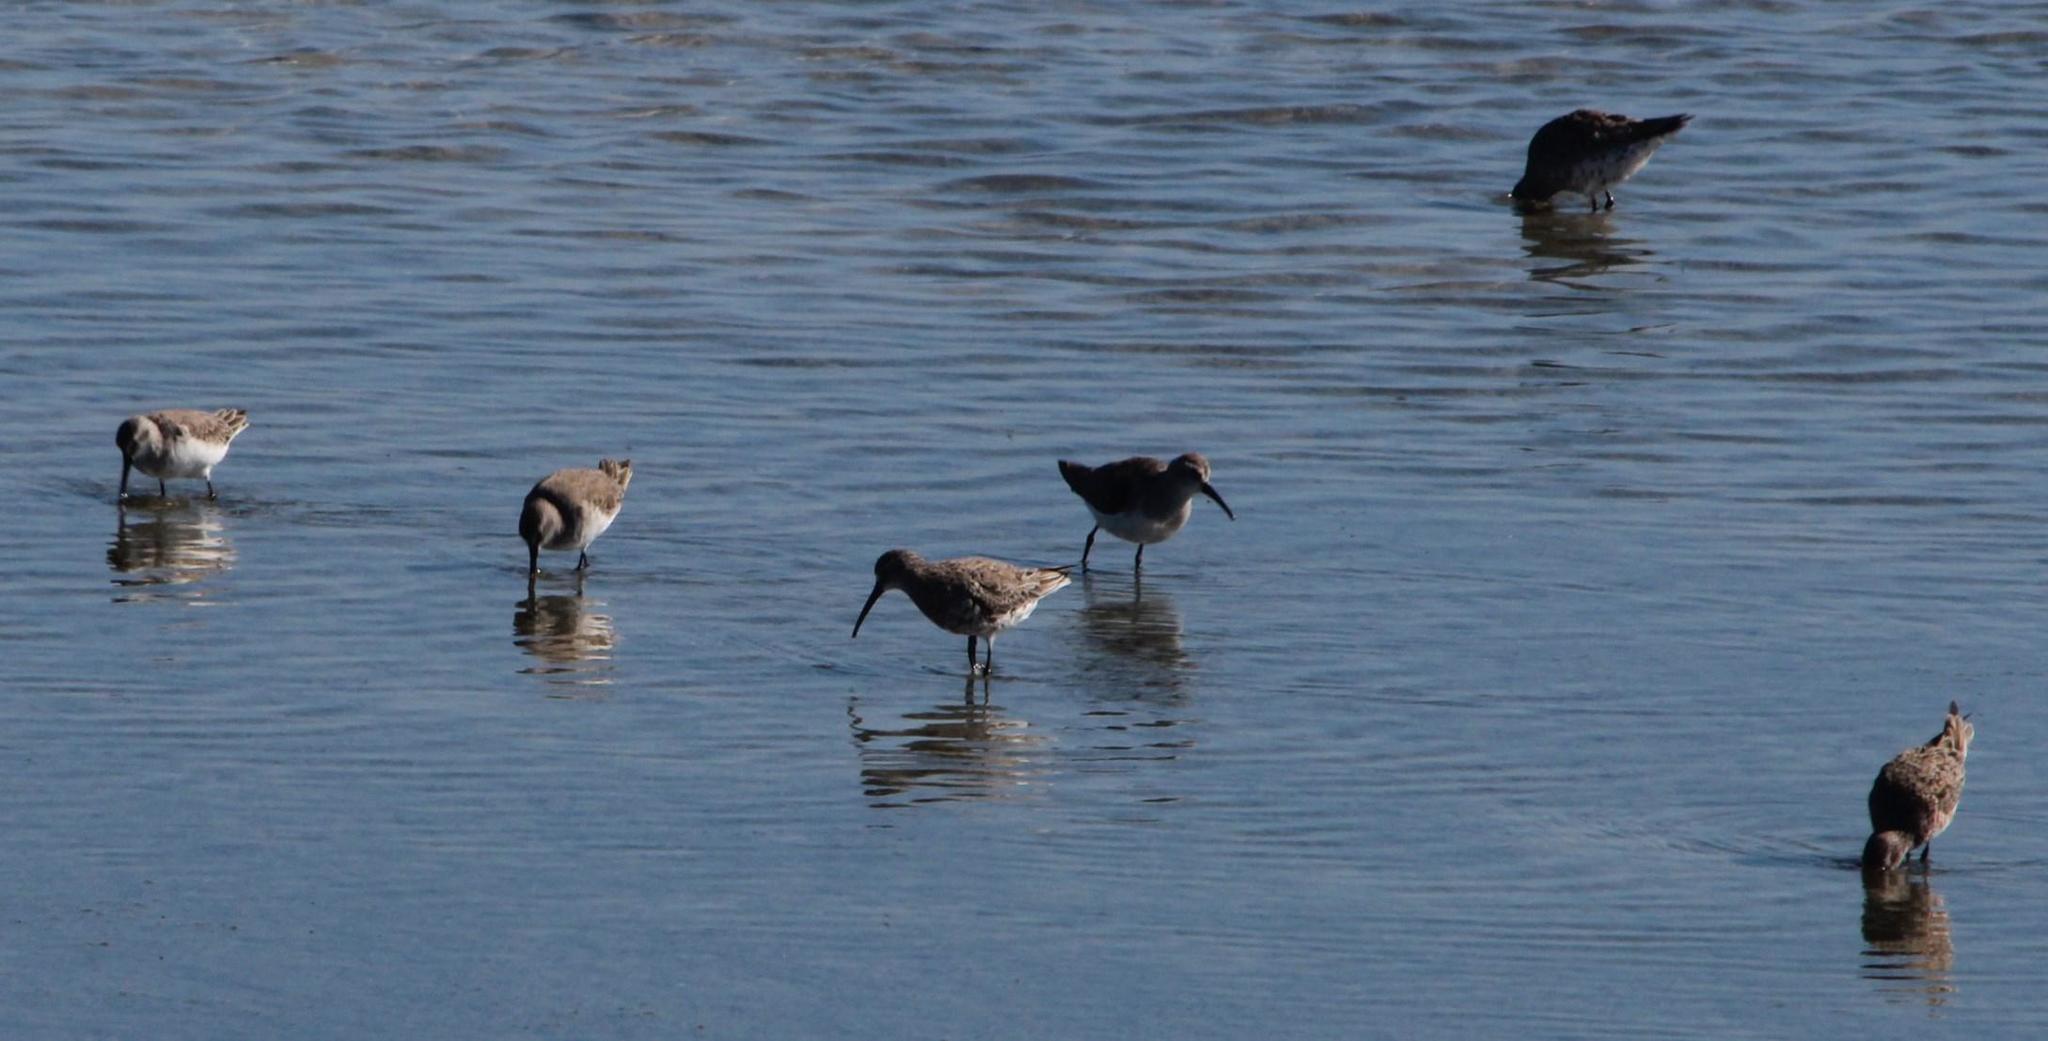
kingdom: Animalia
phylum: Chordata
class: Aves
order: Charadriiformes
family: Scolopacidae
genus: Calidris
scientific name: Calidris ferruginea
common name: Curlew sandpiper
